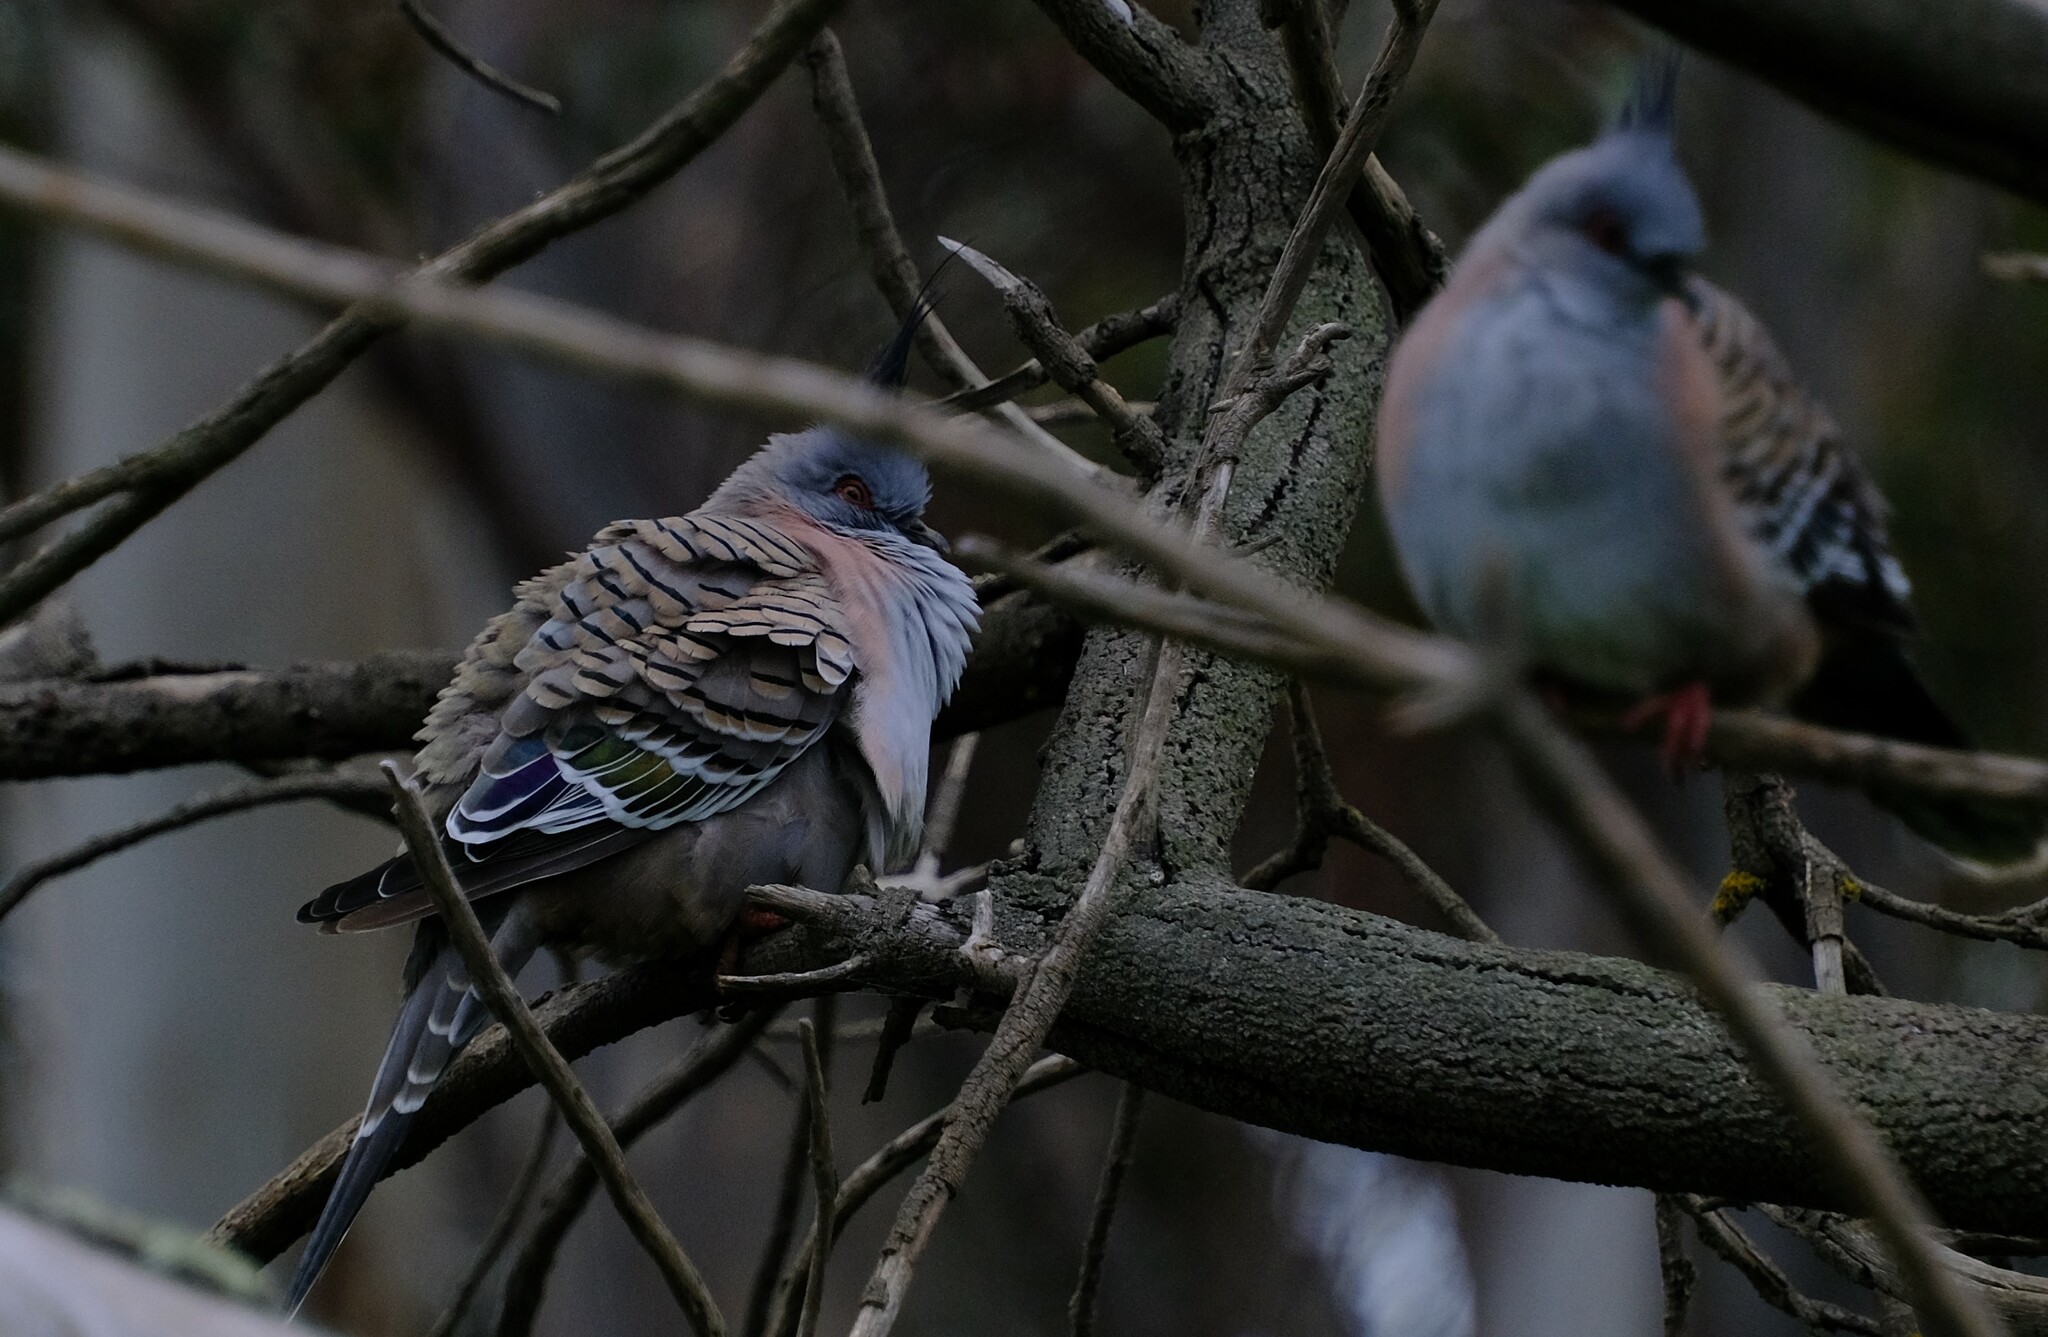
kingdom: Animalia
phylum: Chordata
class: Aves
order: Columbiformes
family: Columbidae
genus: Ocyphaps
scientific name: Ocyphaps lophotes
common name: Crested pigeon
